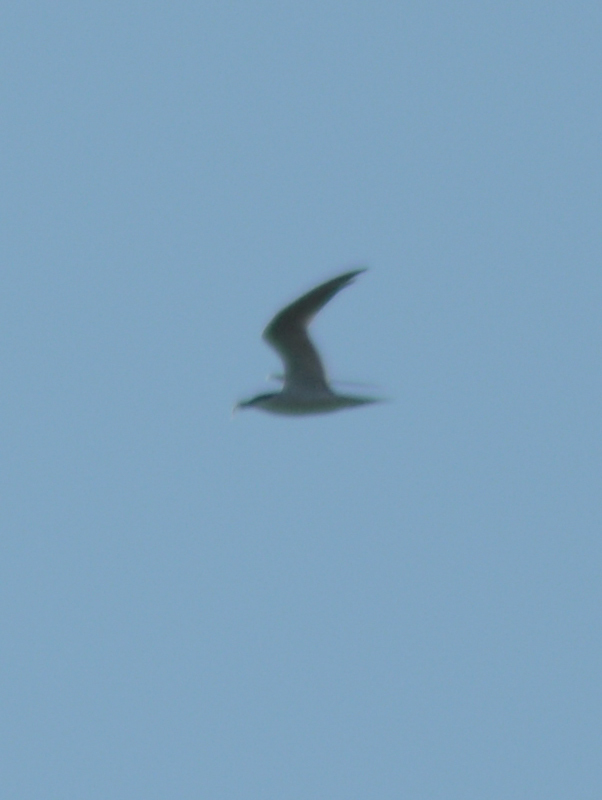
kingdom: Animalia
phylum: Chordata
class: Aves
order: Charadriiformes
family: Laridae
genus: Gelochelidon
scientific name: Gelochelidon nilotica
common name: Gull-billed tern
